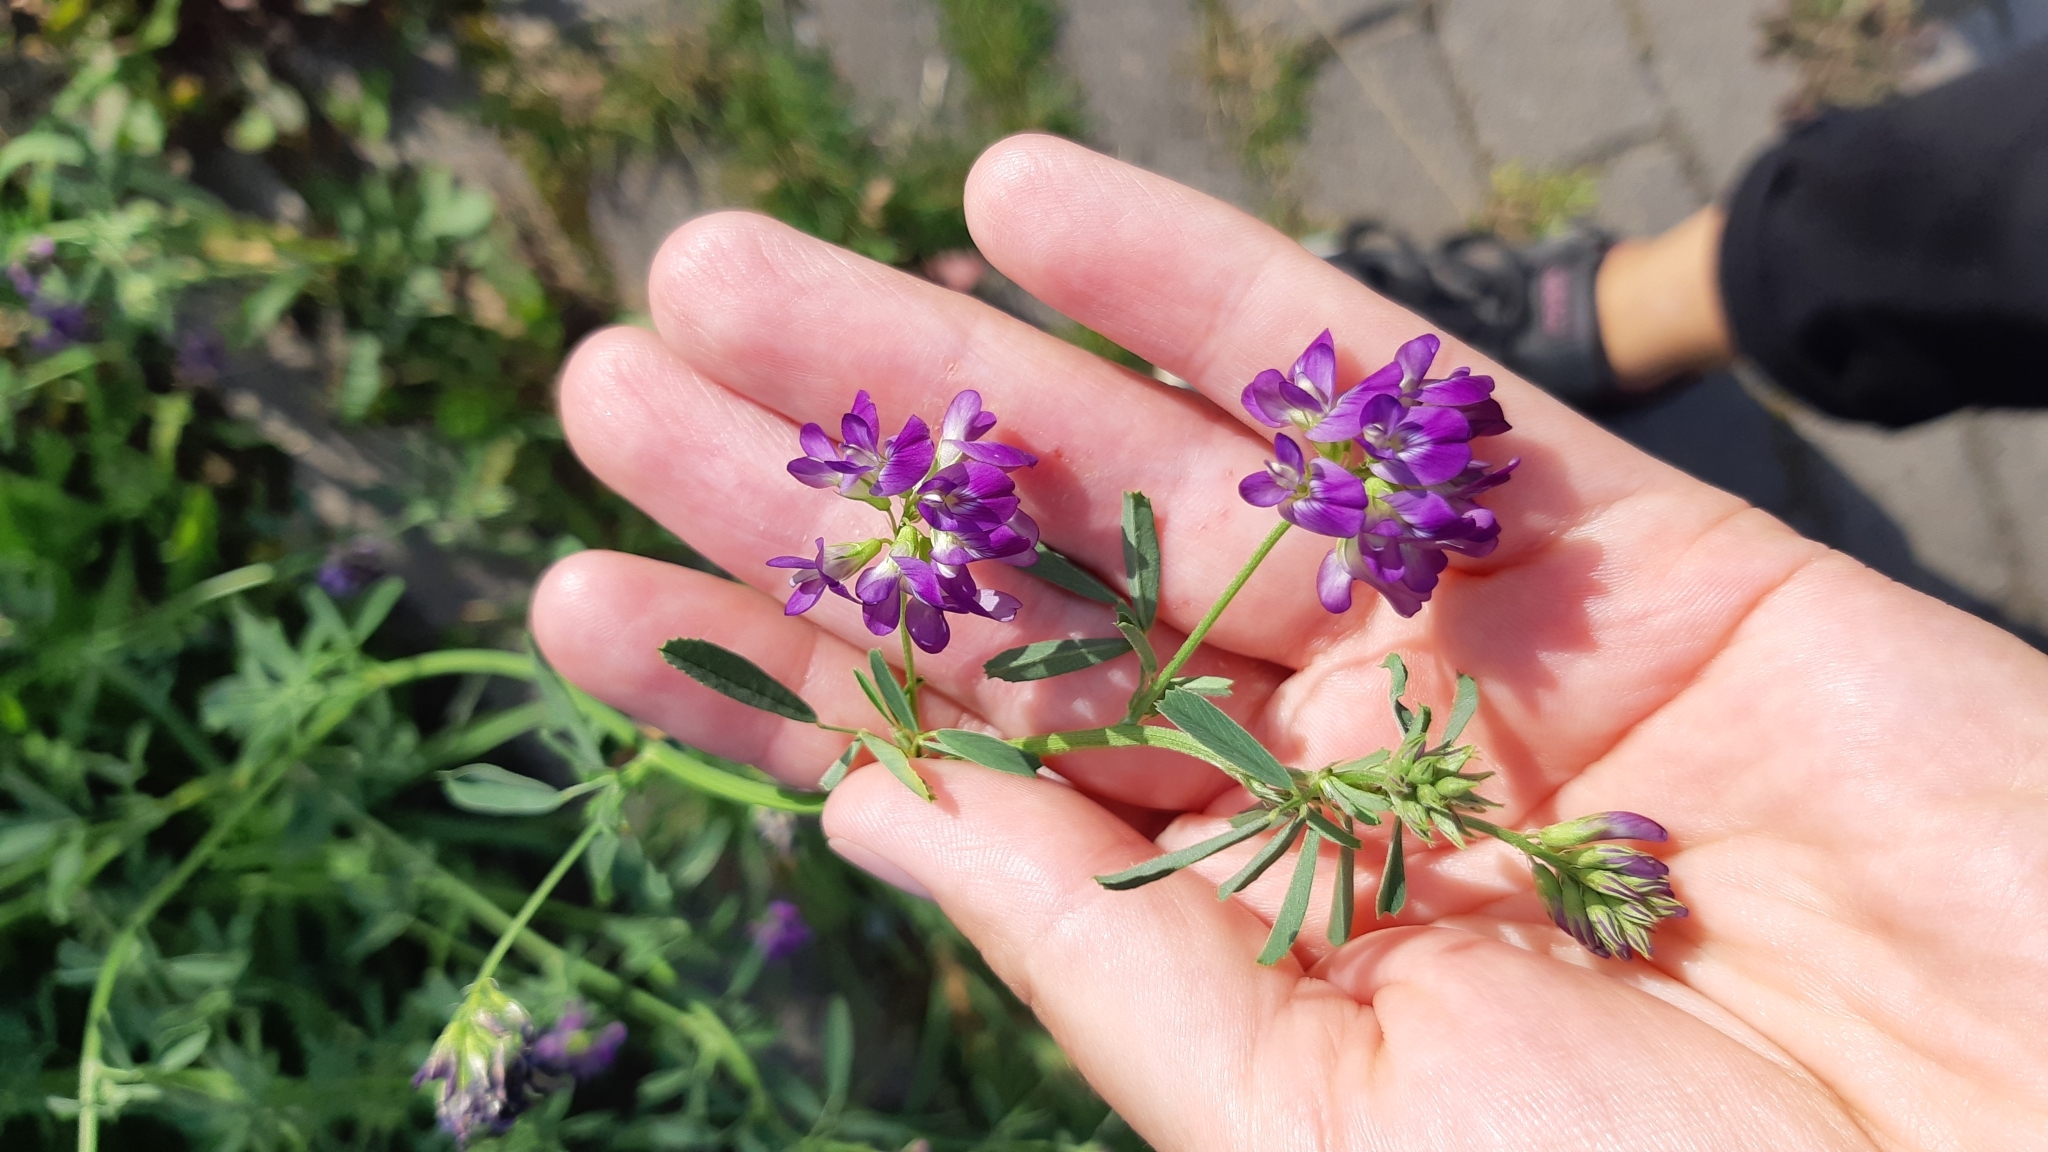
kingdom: Plantae
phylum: Tracheophyta
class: Magnoliopsida
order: Fabales
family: Fabaceae
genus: Medicago
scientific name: Medicago sativa
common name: Alfalfa
